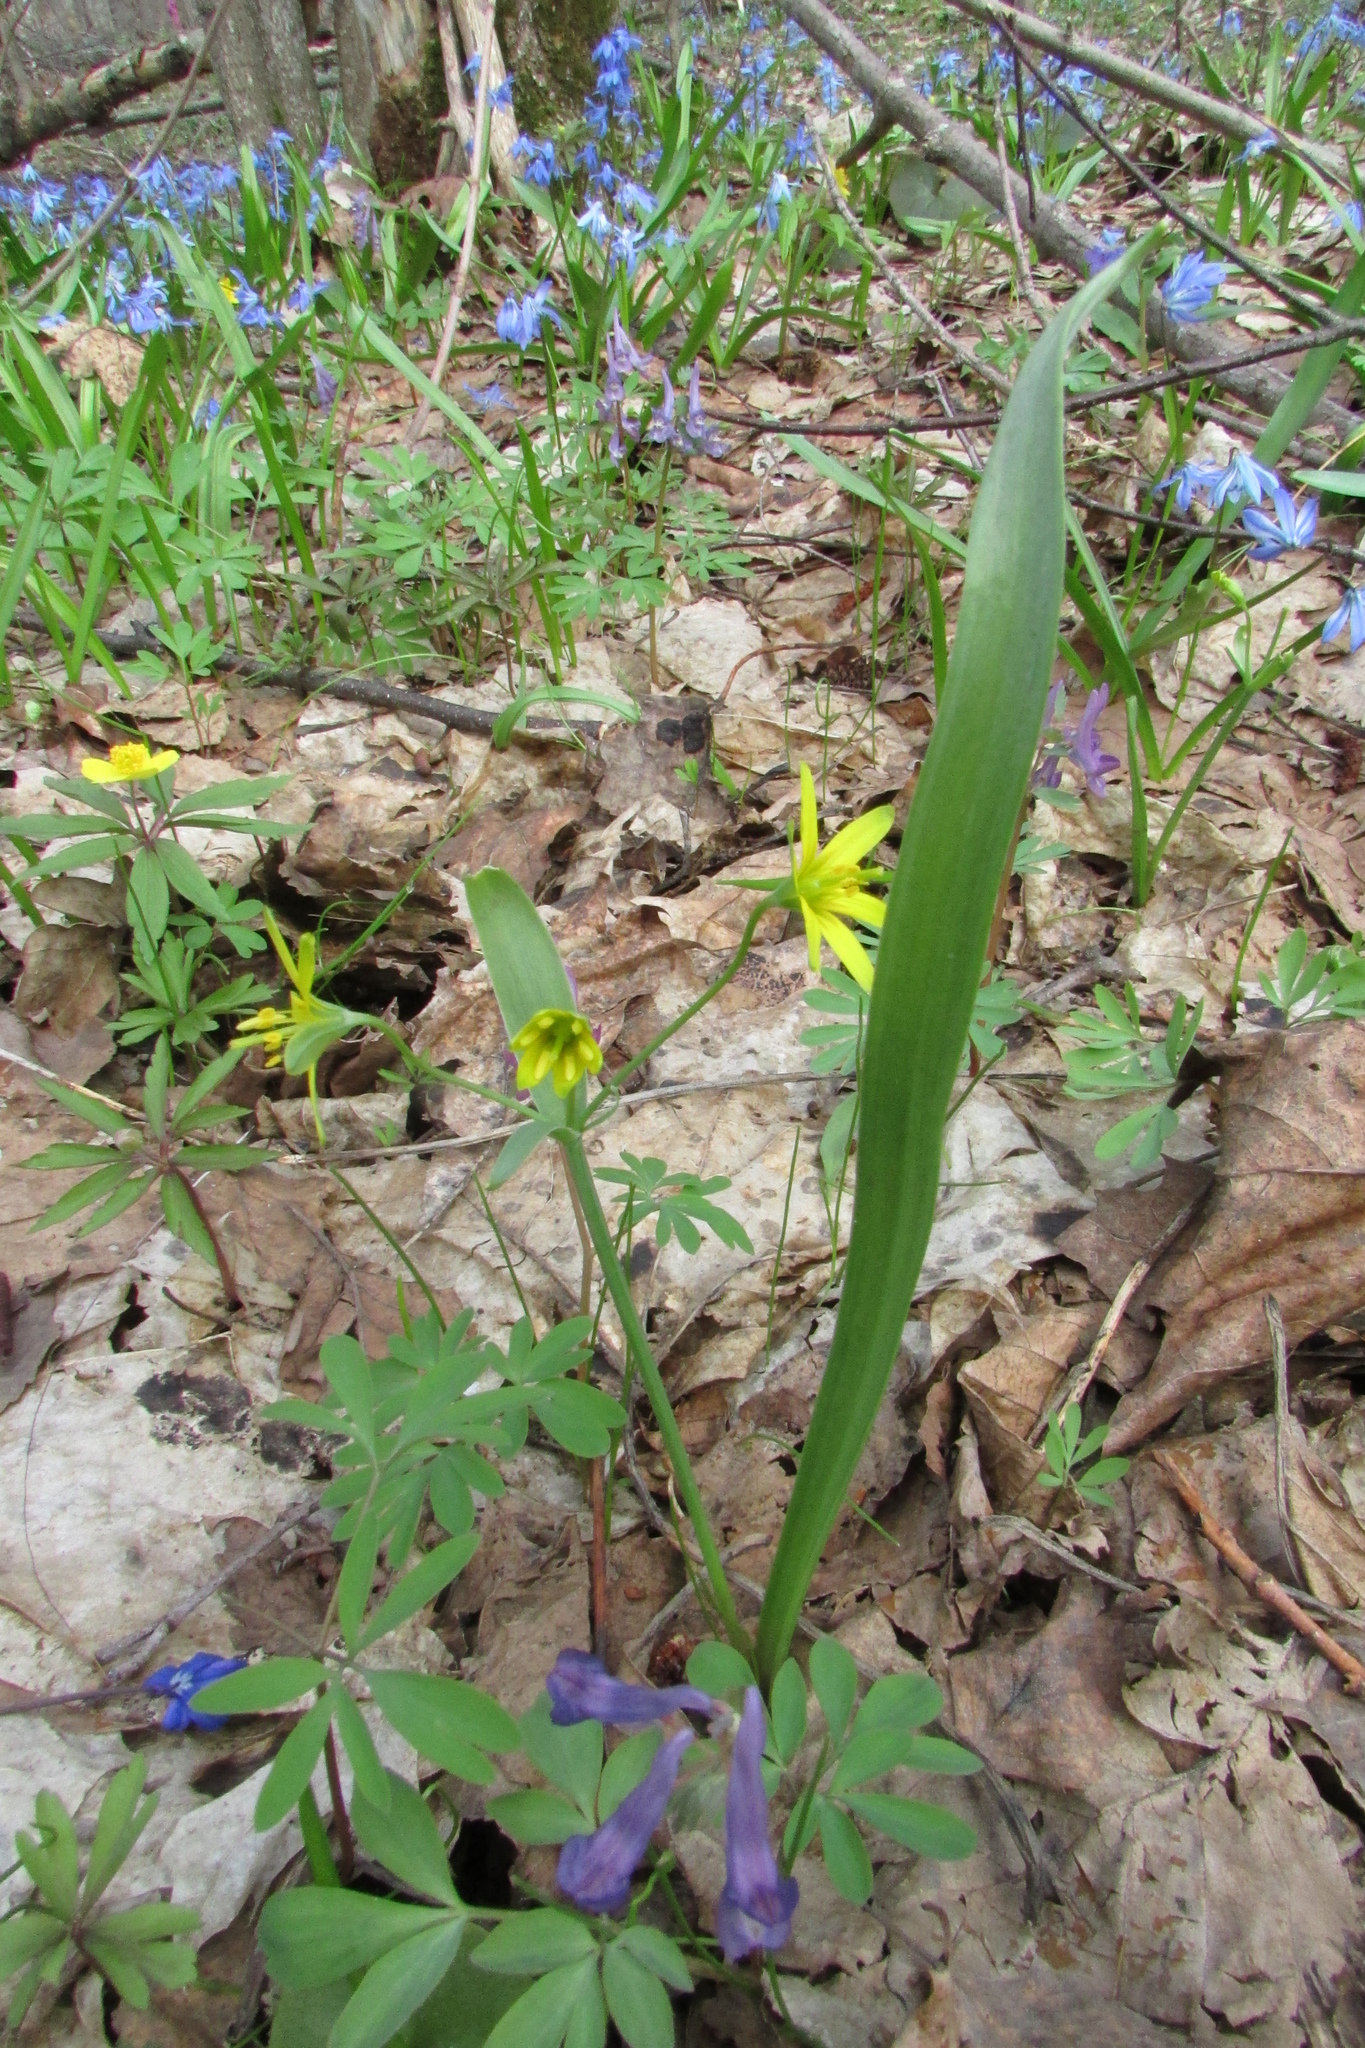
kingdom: Plantae
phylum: Tracheophyta
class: Liliopsida
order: Liliales
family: Liliaceae
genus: Gagea
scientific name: Gagea lutea
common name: Yellow star-of-bethlehem
